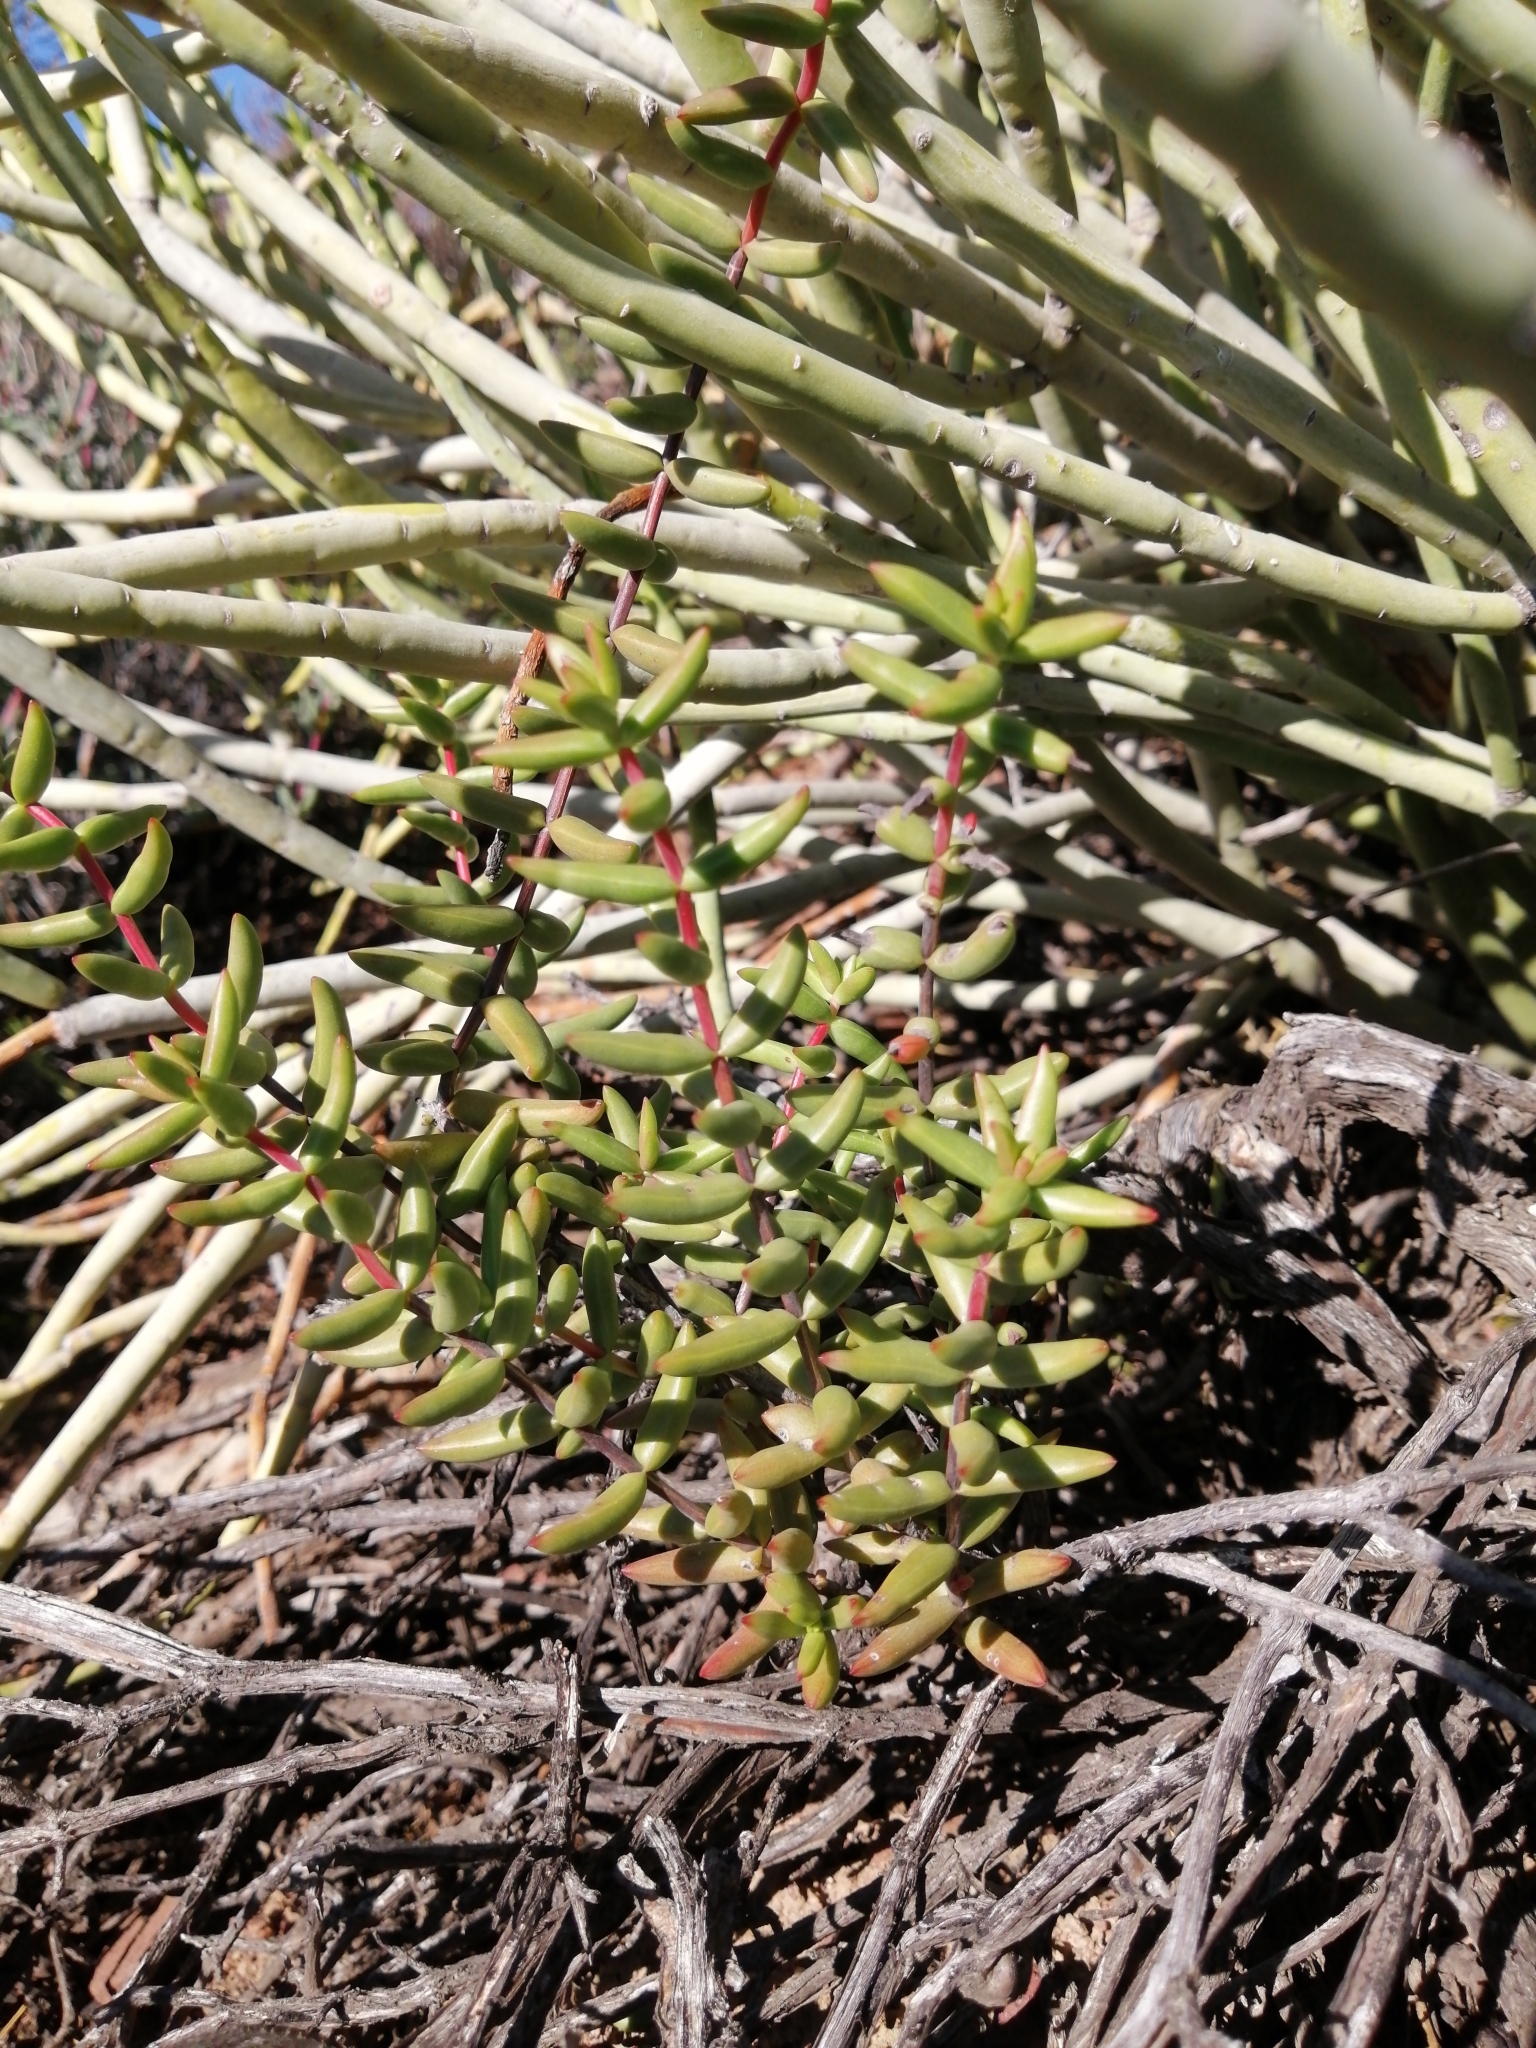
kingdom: Plantae
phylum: Tracheophyta
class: Magnoliopsida
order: Saxifragales
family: Crassulaceae
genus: Crassula
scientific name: Crassula subaphylla
